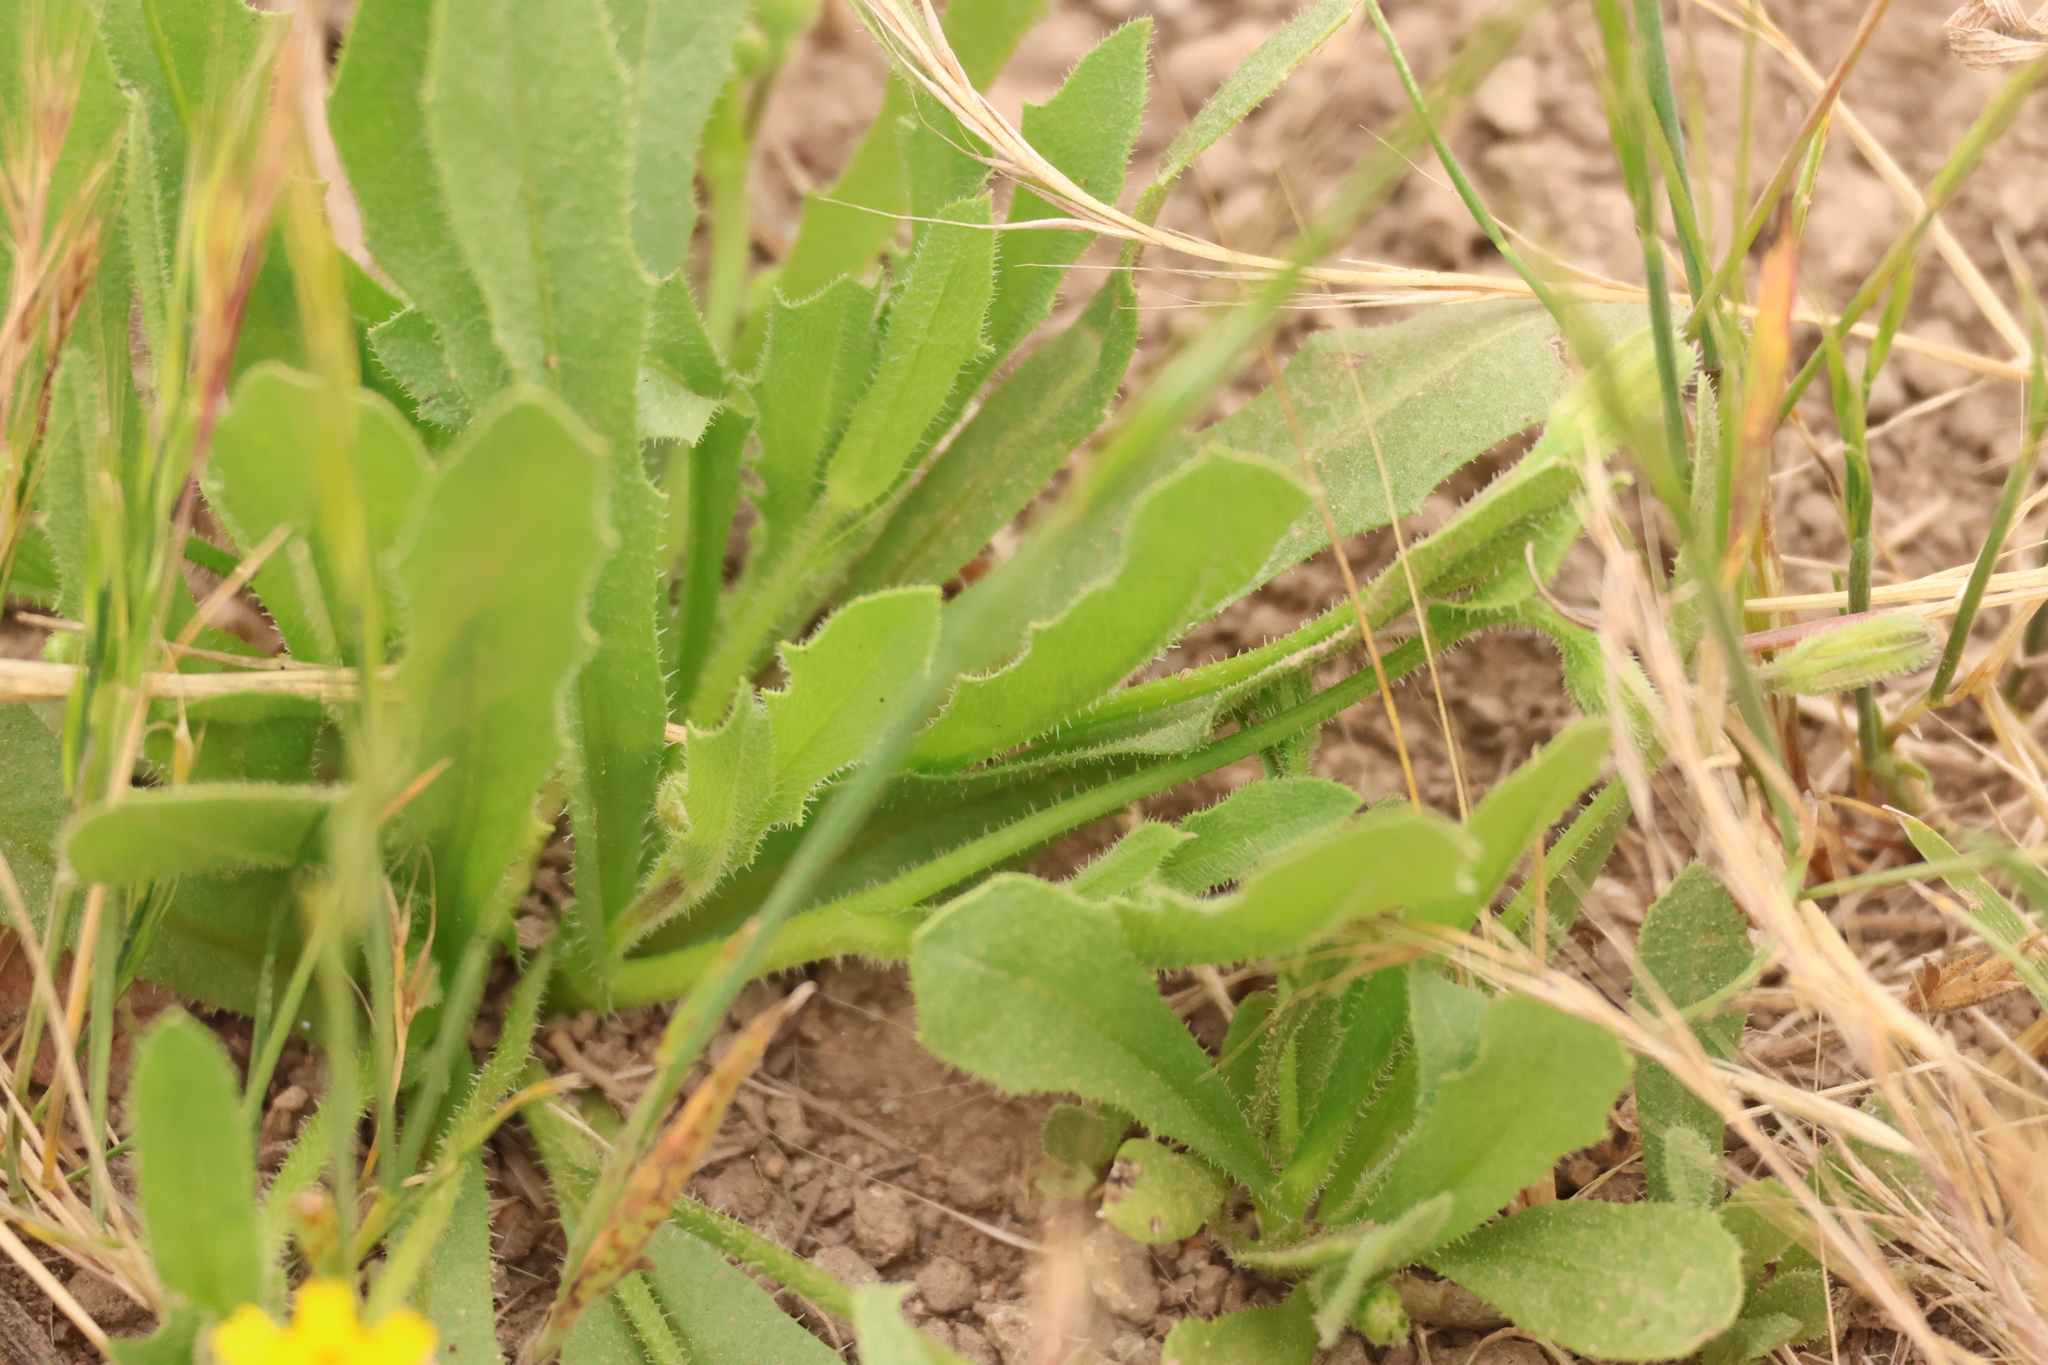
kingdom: Plantae
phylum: Tracheophyta
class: Magnoliopsida
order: Asterales
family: Asteraceae
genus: Hedypnois
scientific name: Hedypnois rhagadioloides
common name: Cretan weed
